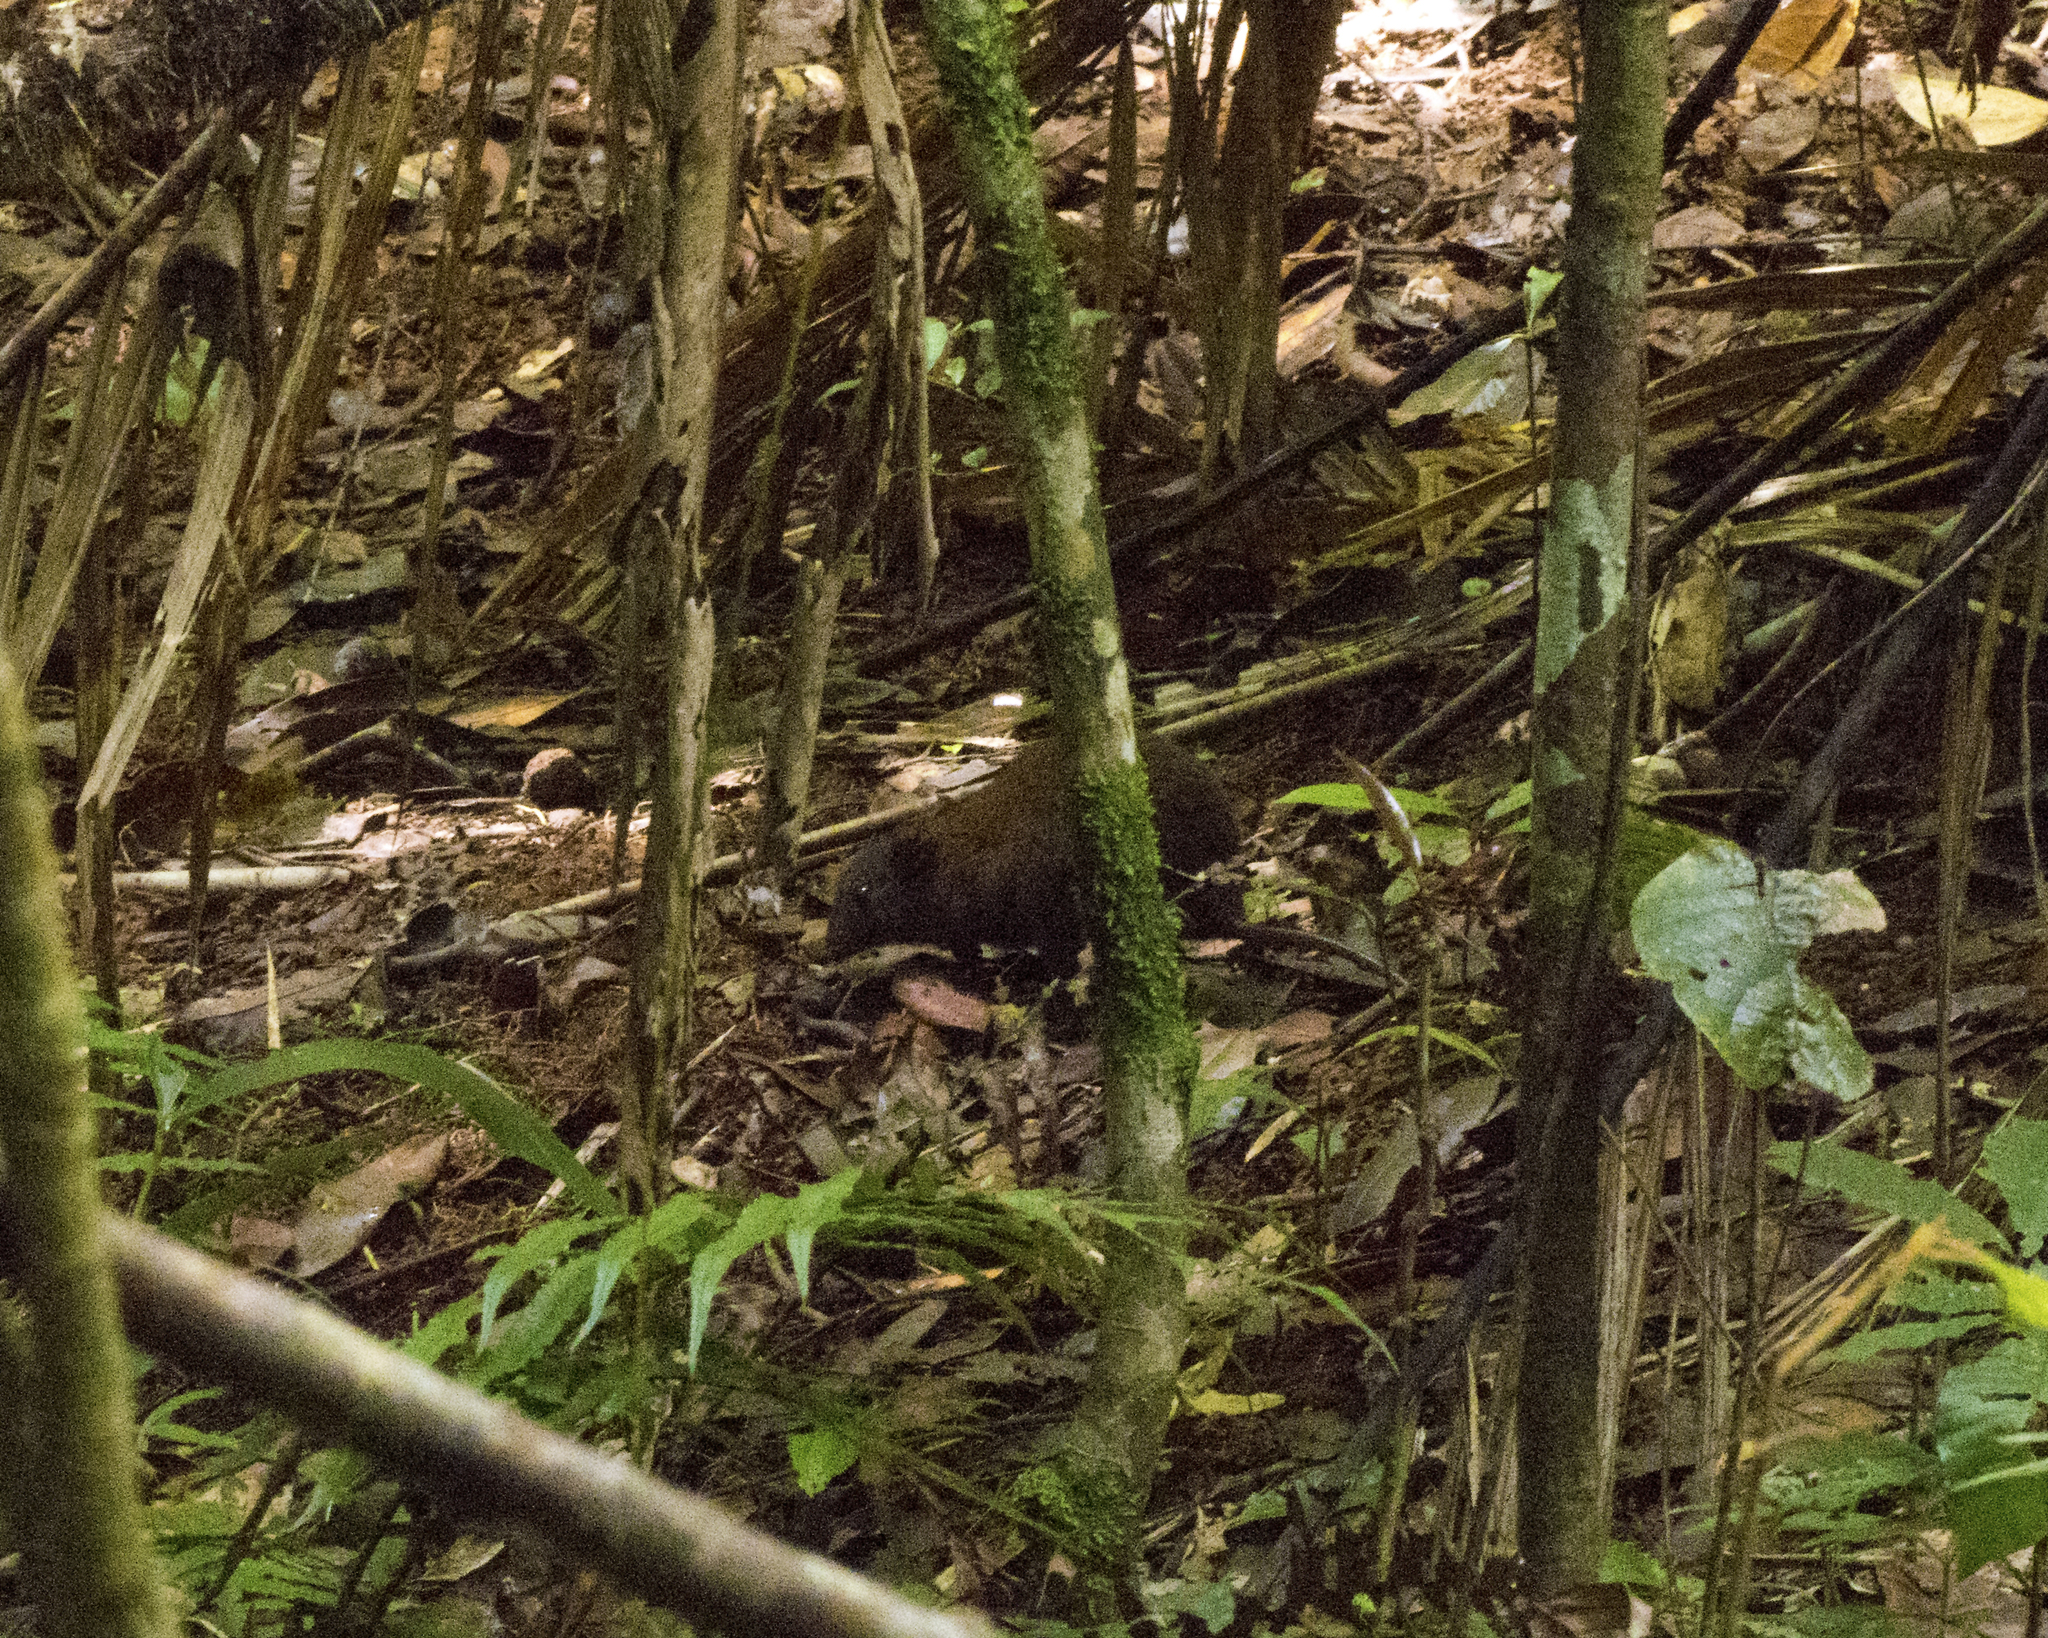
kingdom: Animalia
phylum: Chordata
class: Mammalia
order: Diprotodontia
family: Hypsiprymnodontidae
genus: Hypsiprymnodon
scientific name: Hypsiprymnodon moschatus
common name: Musky rat-kangaroo
